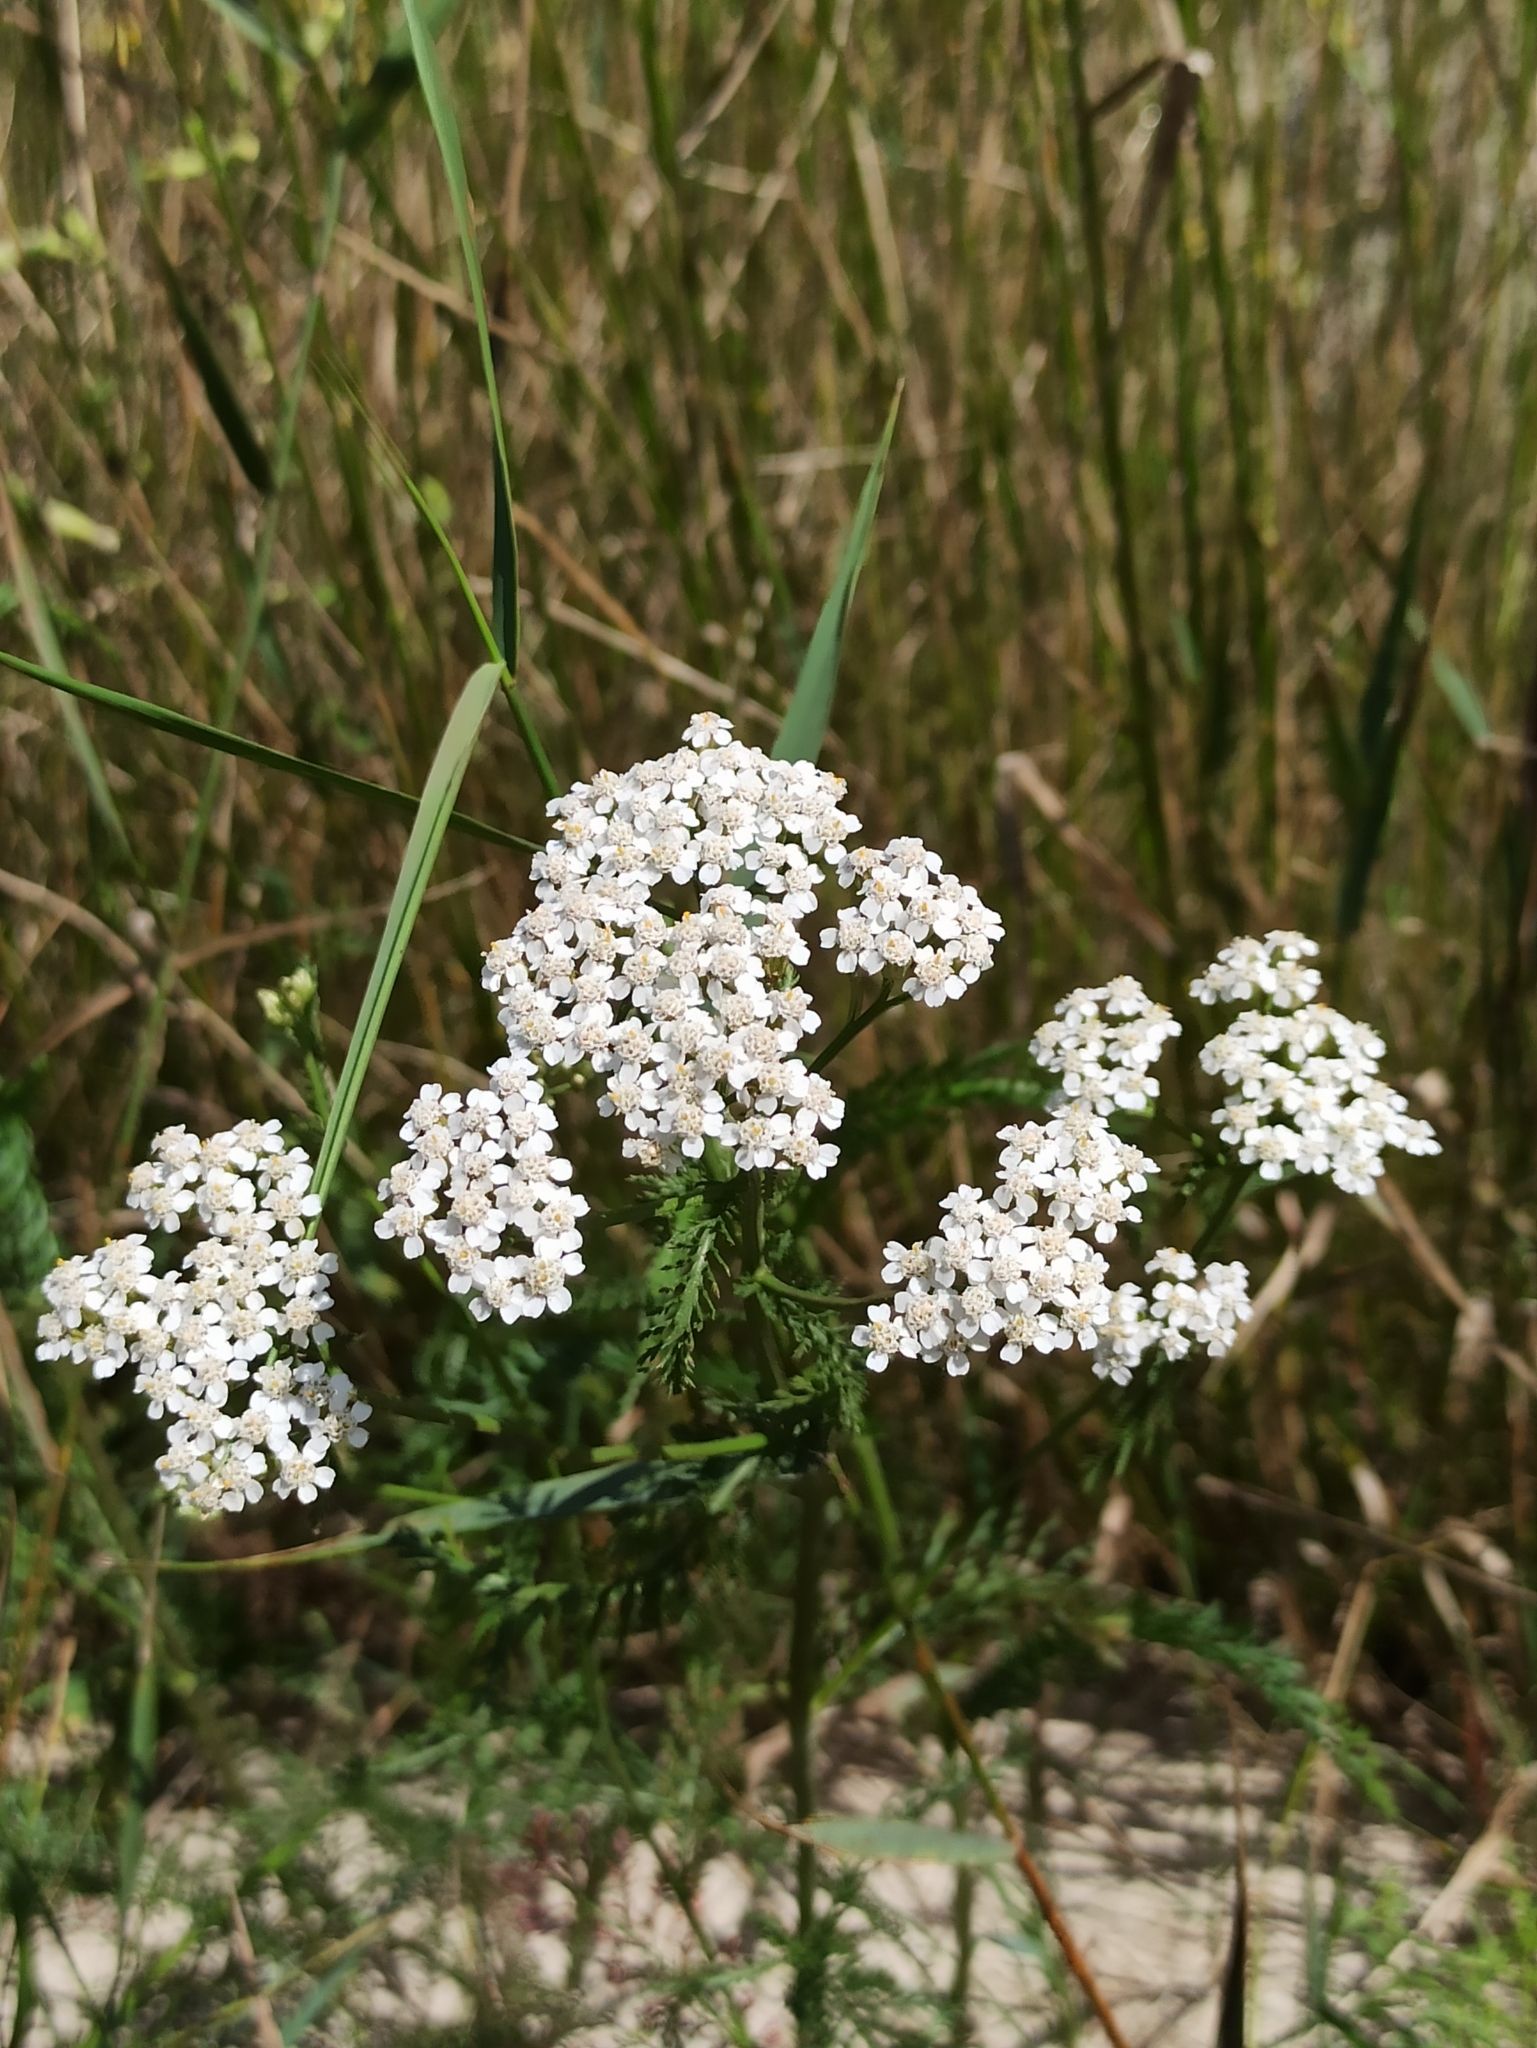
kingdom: Plantae
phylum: Tracheophyta
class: Magnoliopsida
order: Asterales
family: Asteraceae
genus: Achillea
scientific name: Achillea millefolium
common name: Yarrow
